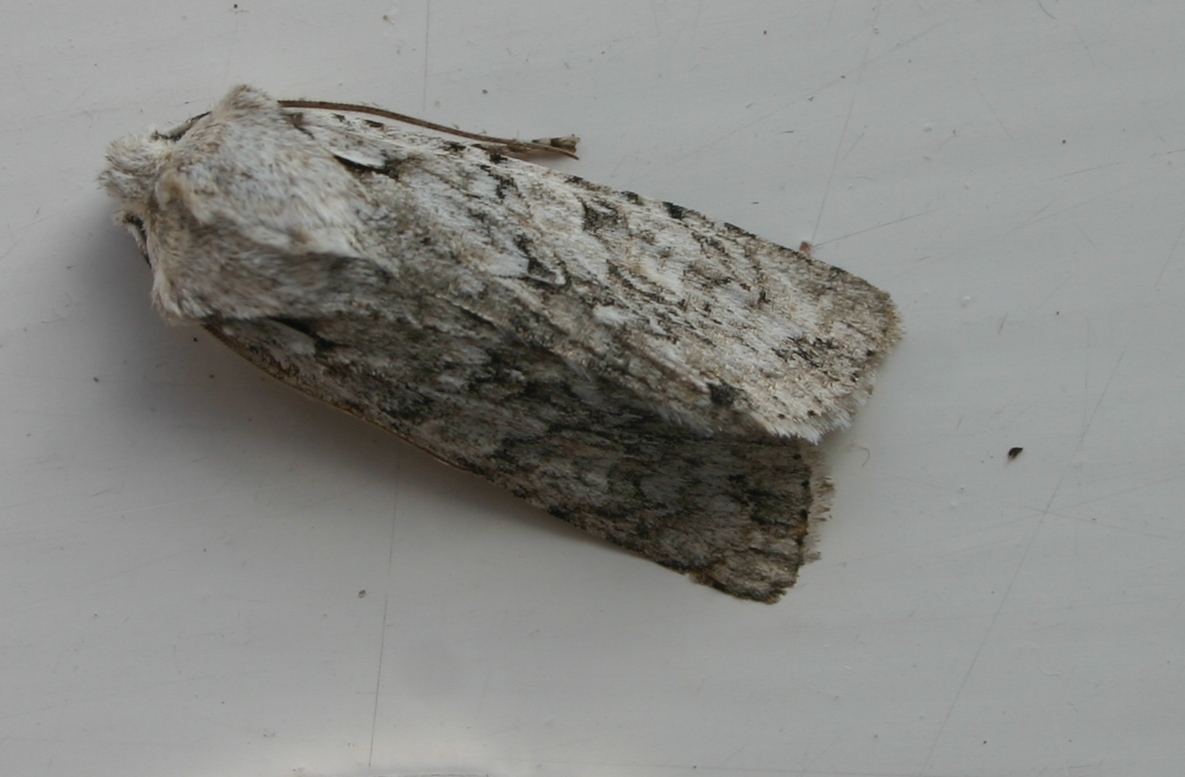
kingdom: Animalia
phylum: Arthropoda
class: Insecta
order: Lepidoptera
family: Noctuidae
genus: Lithophane
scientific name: Lithophane ornitopus
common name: Grey shoulder-knot
